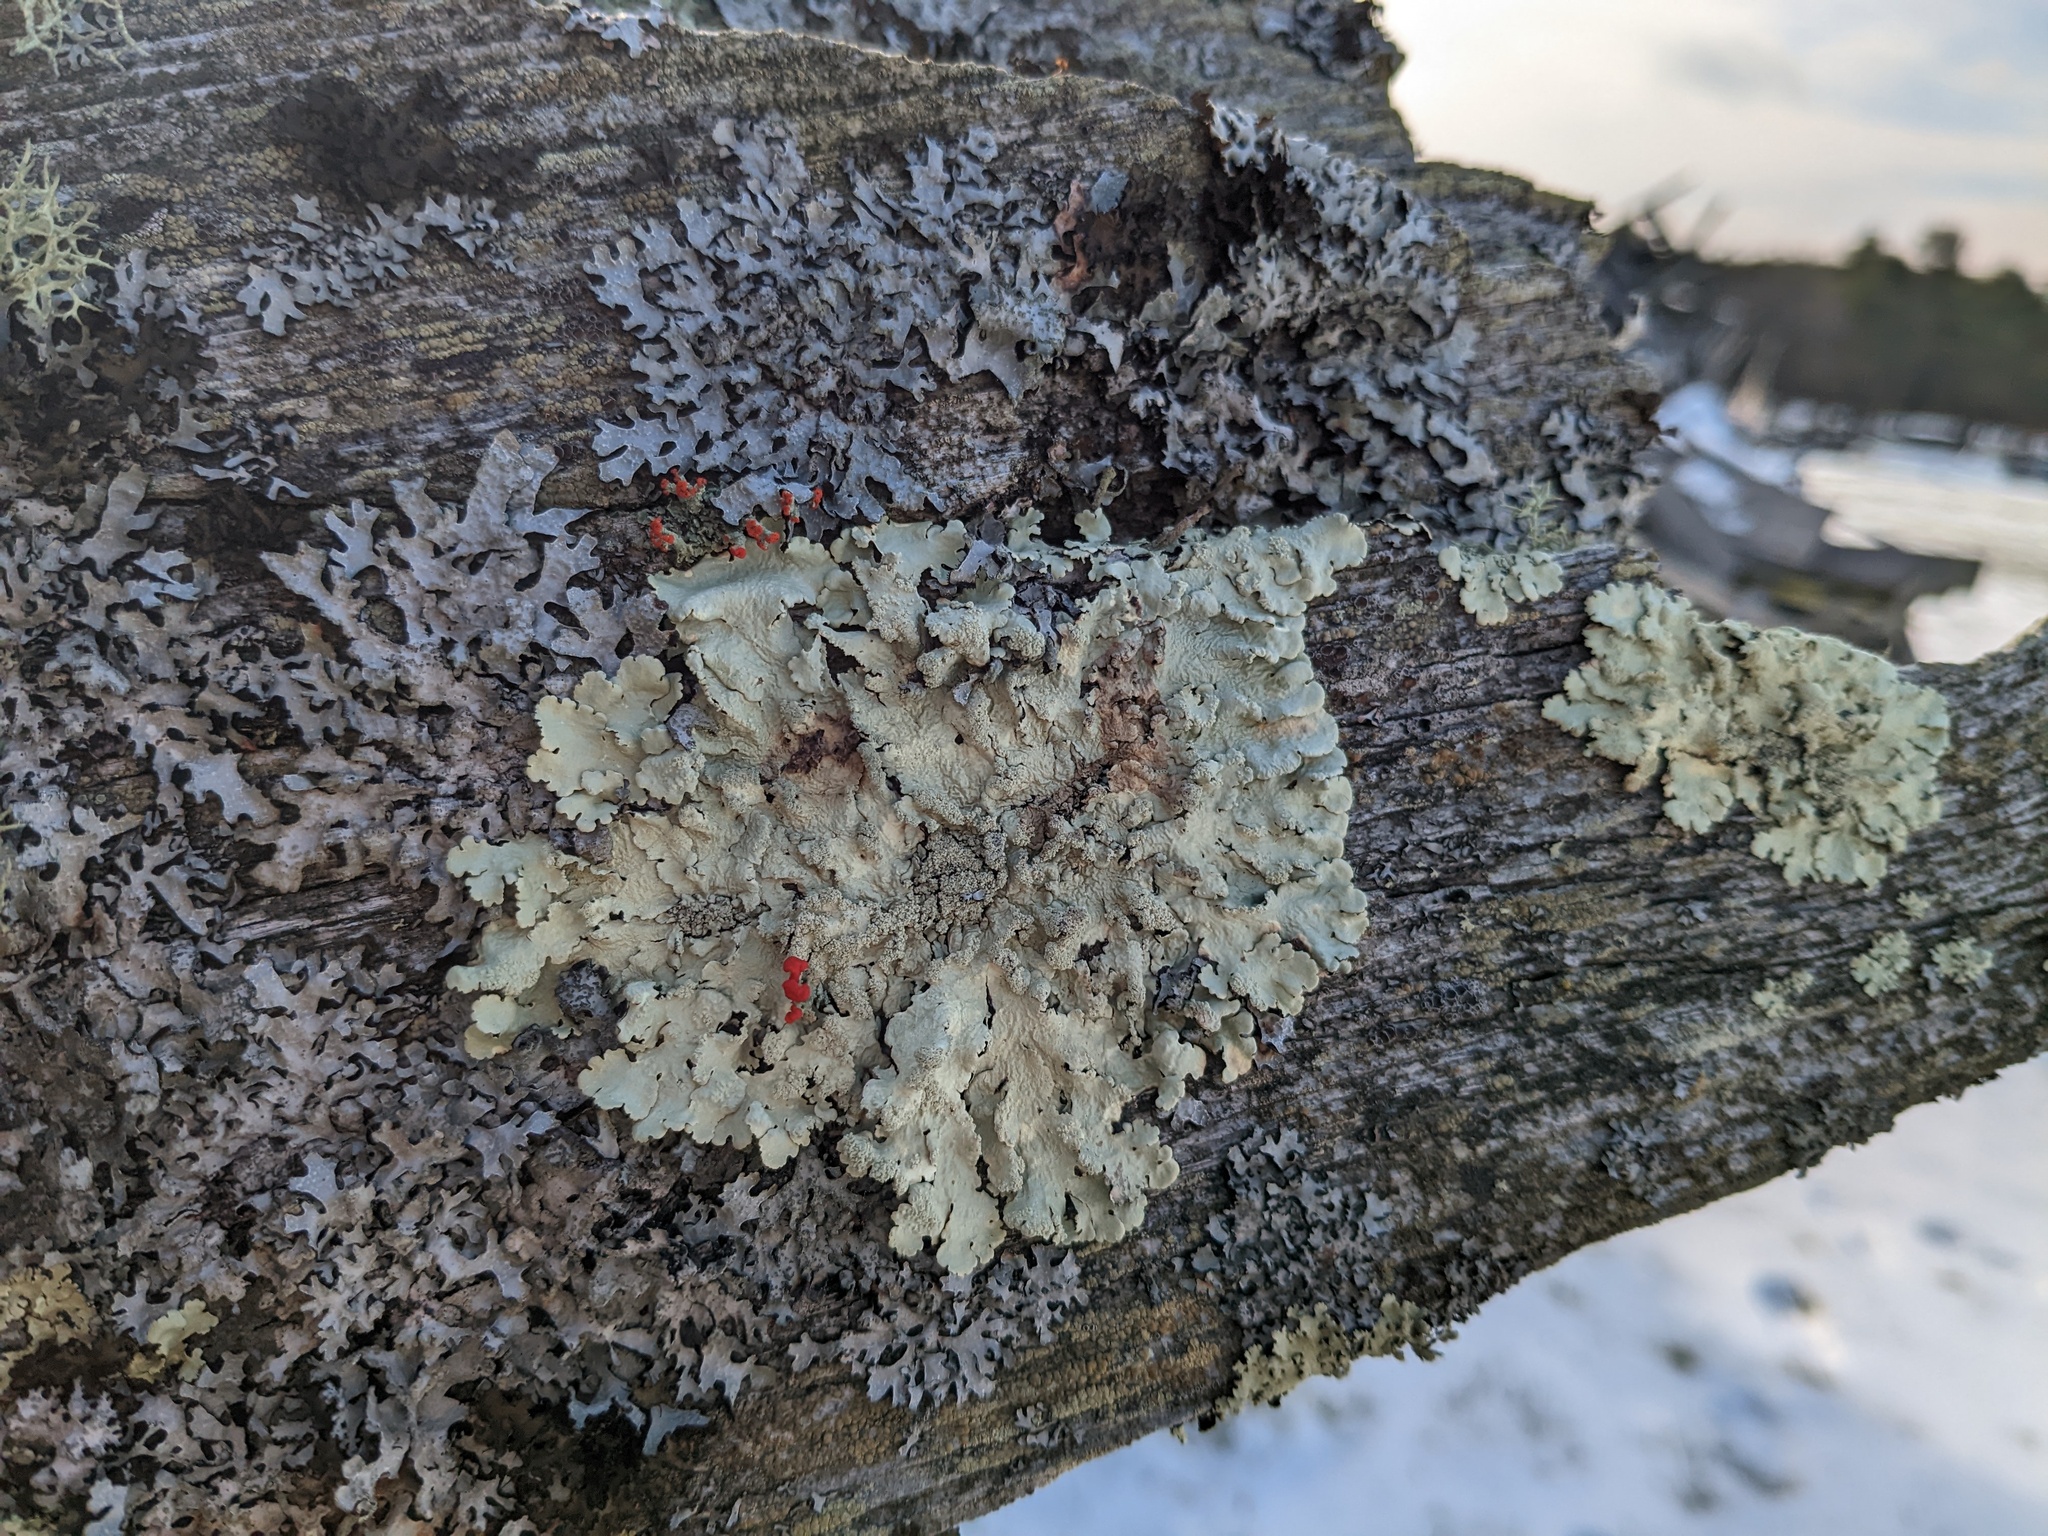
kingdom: Fungi
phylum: Ascomycota
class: Lecanoromycetes
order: Lecanorales
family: Parmeliaceae
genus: Flavoparmelia
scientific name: Flavoparmelia caperata
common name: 40-mile per hour lichen
